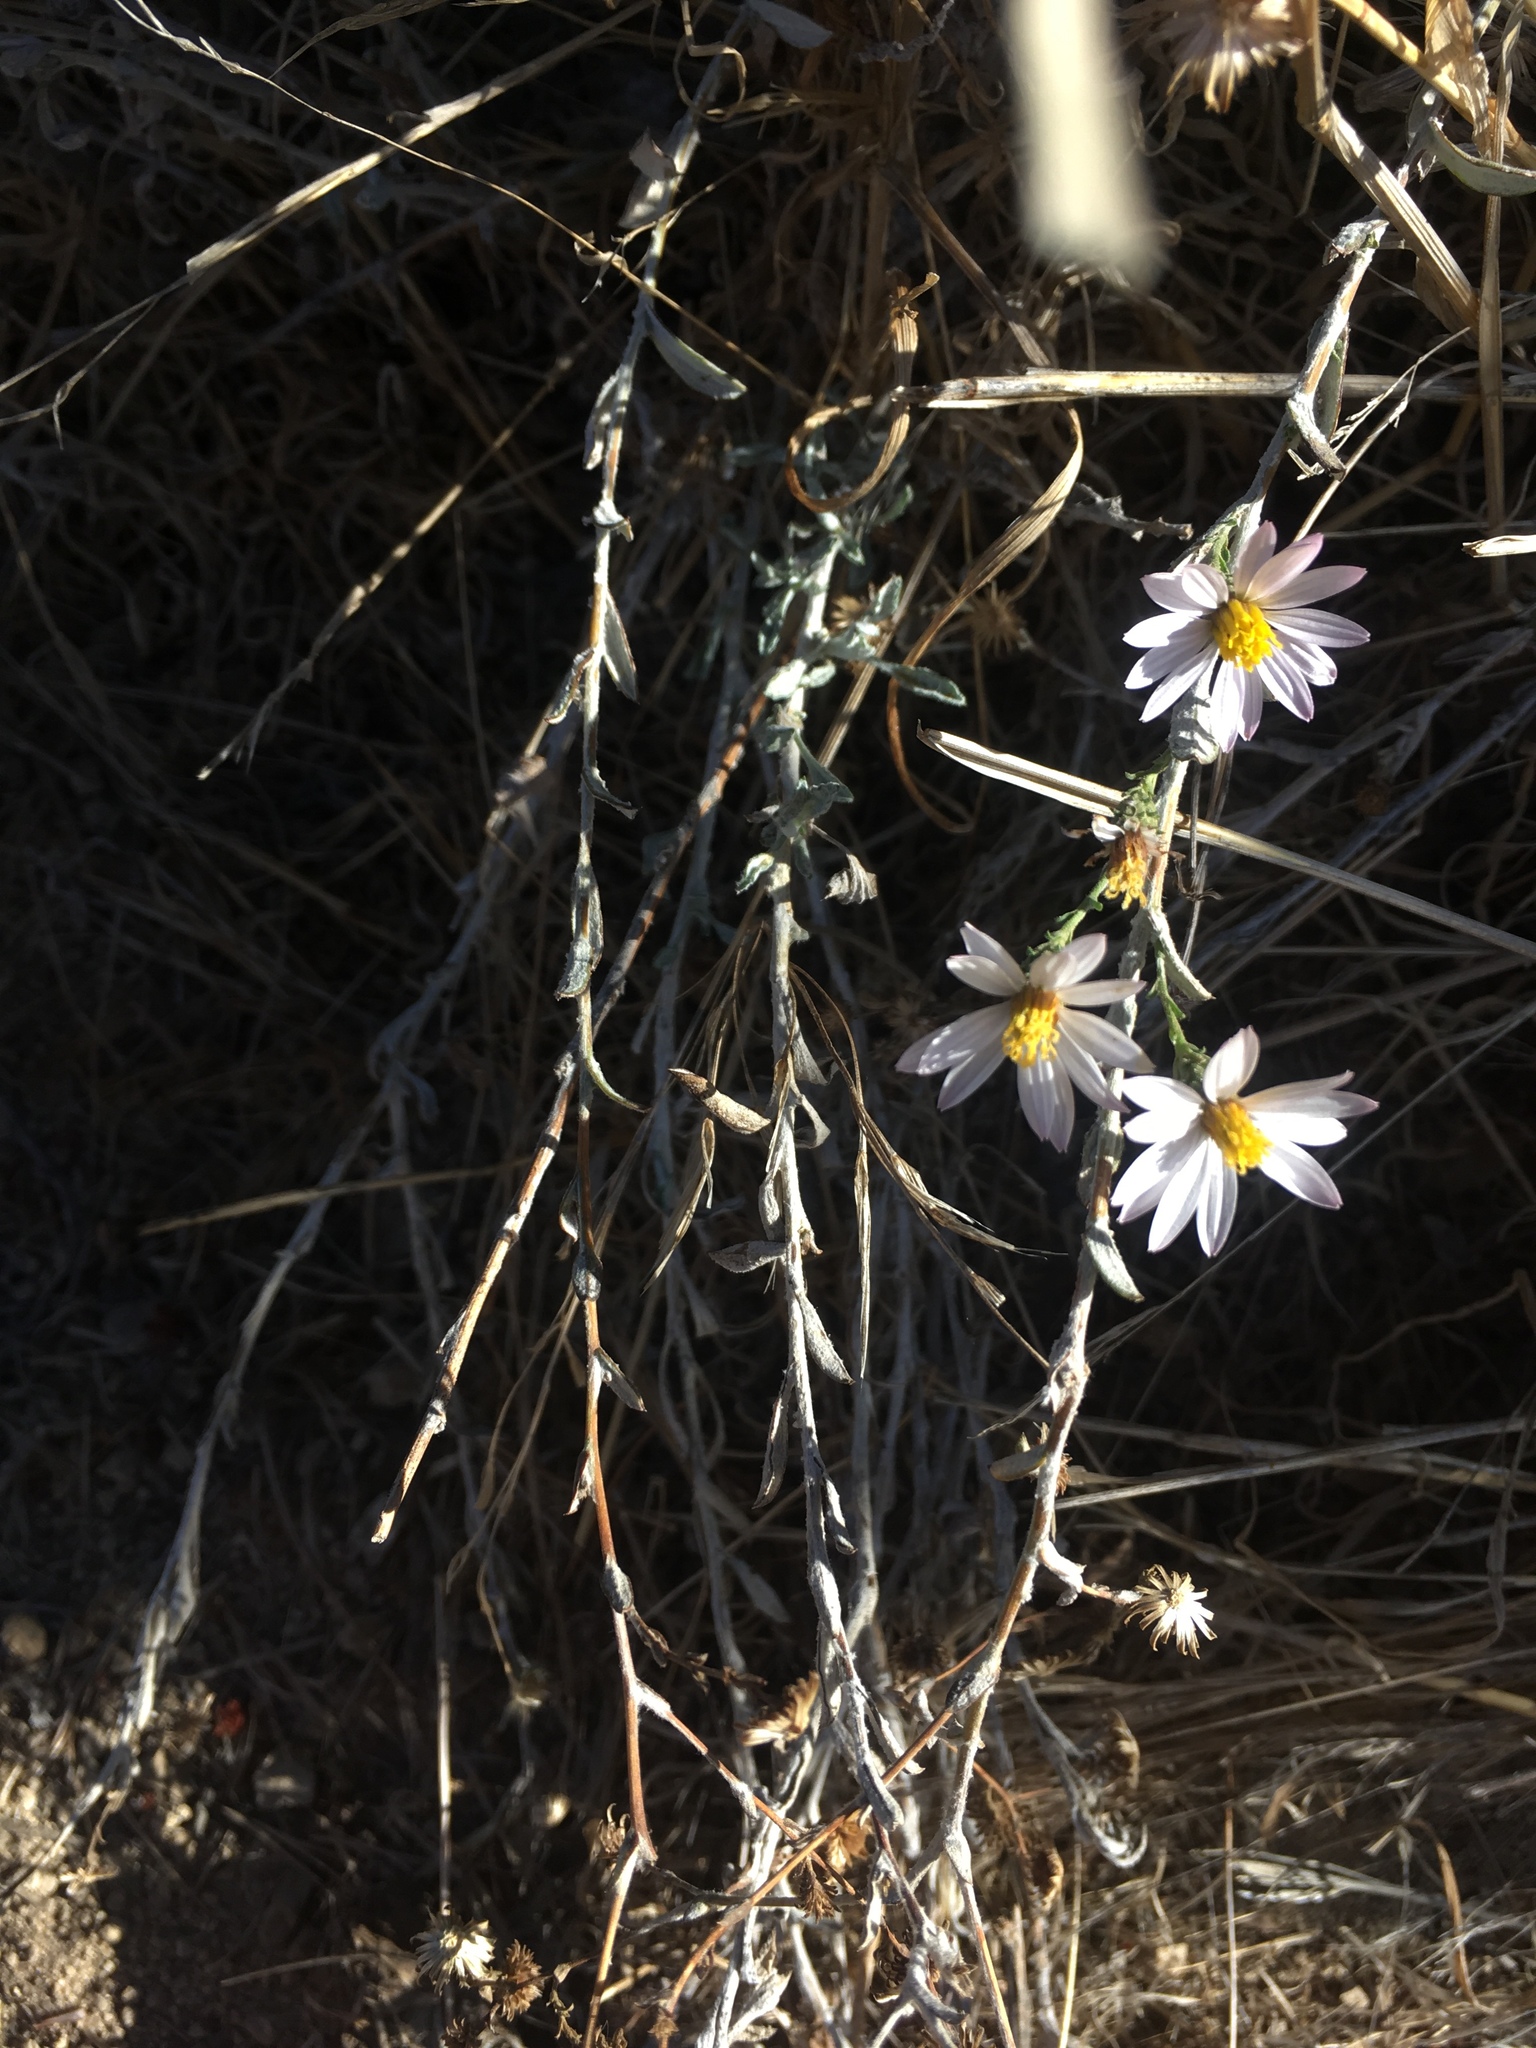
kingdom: Plantae
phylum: Tracheophyta
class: Magnoliopsida
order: Asterales
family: Asteraceae
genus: Corethrogyne
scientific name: Corethrogyne filaginifolia
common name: Sand-aster
